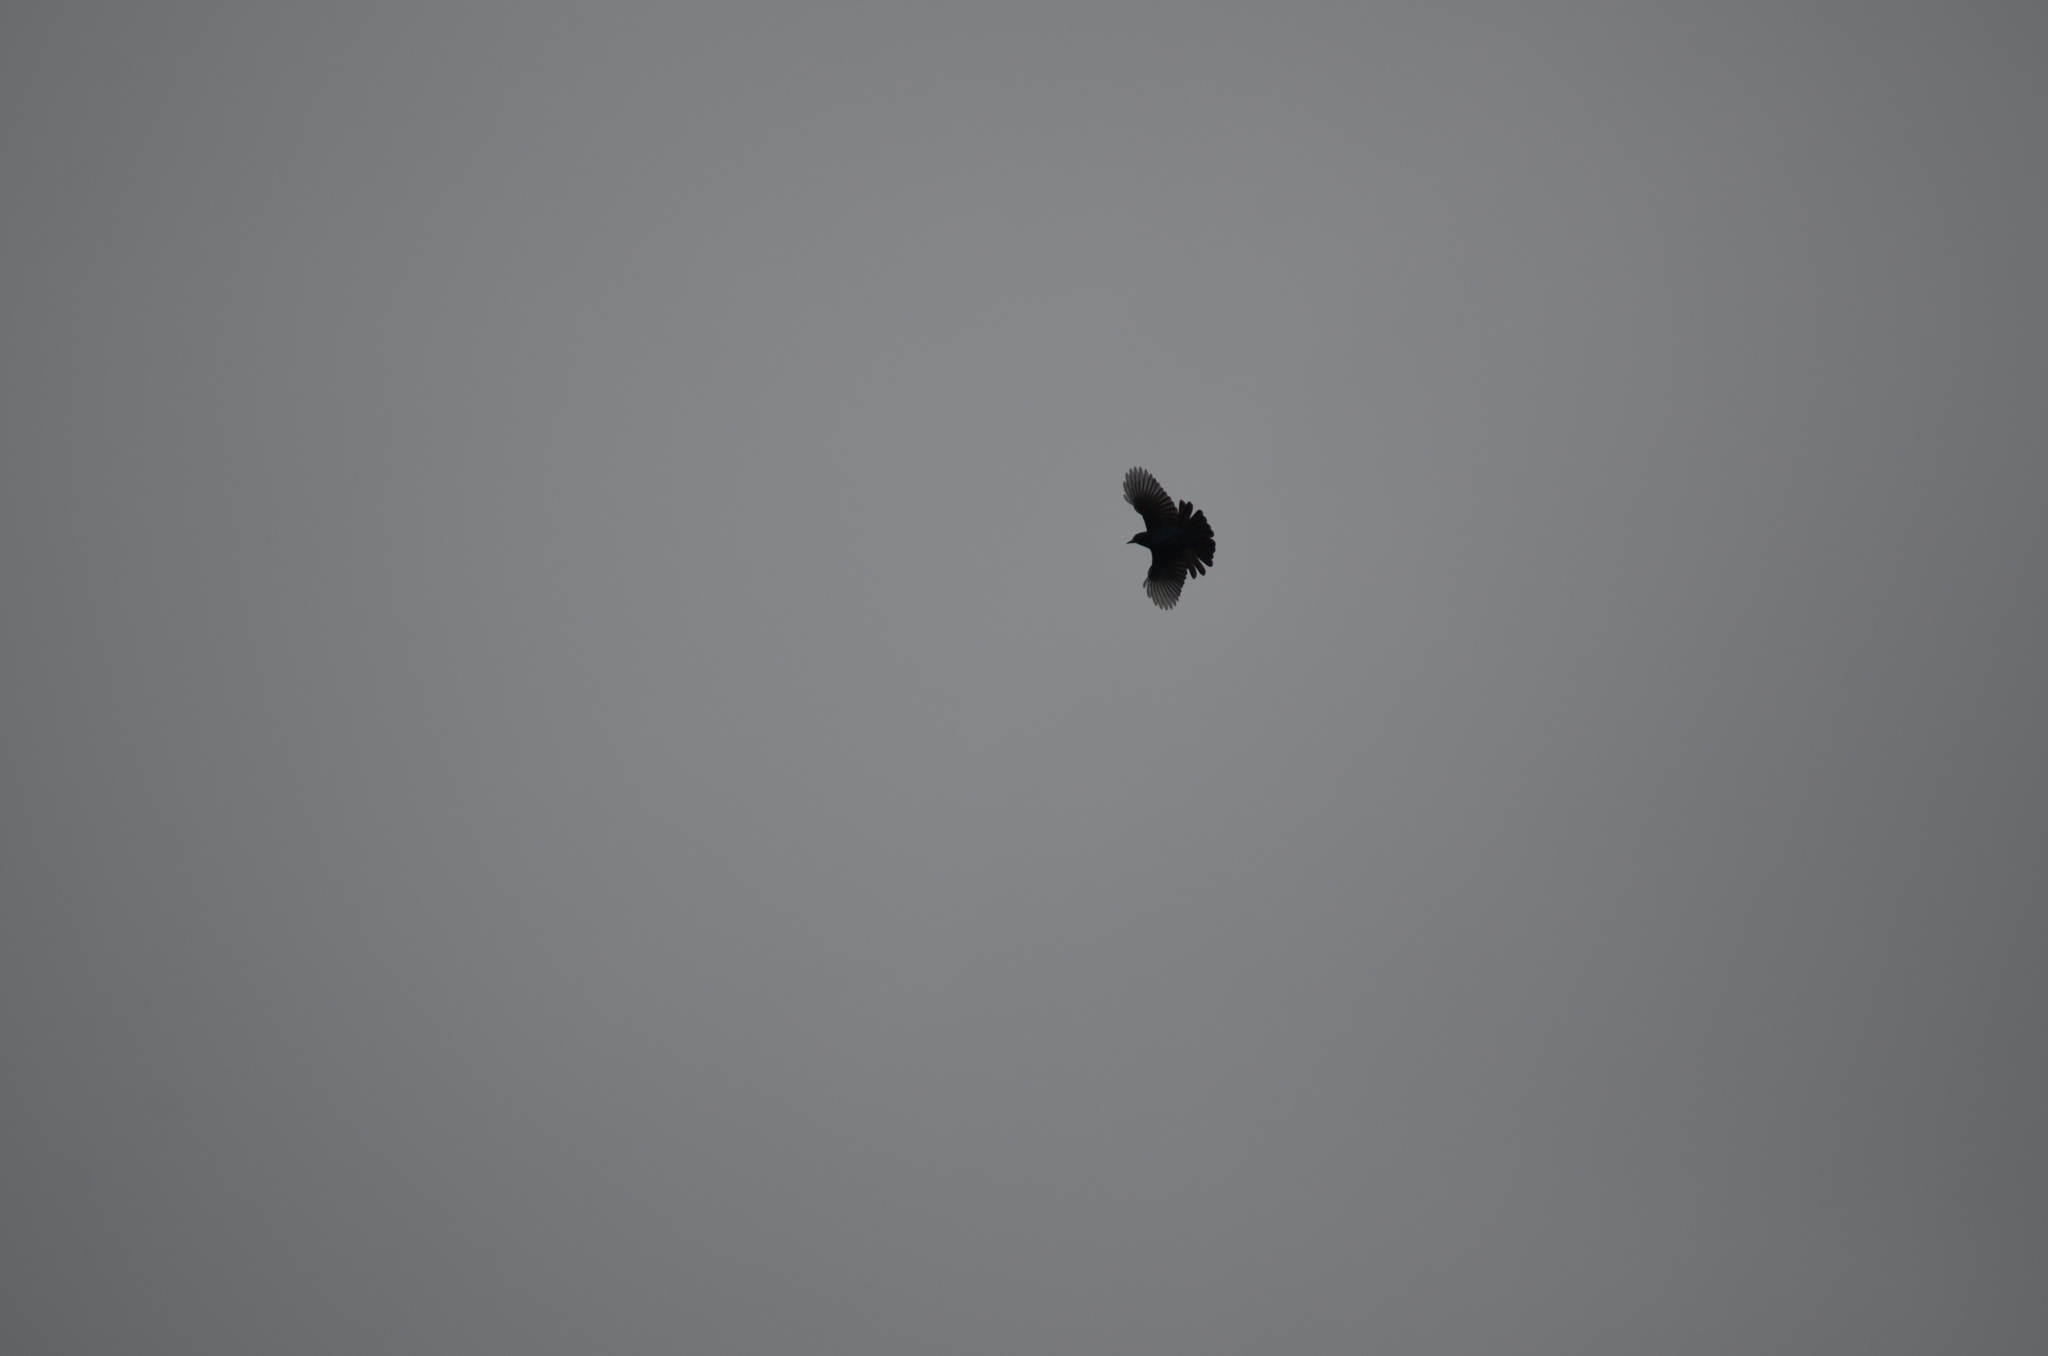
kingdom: Animalia
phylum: Chordata
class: Aves
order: Passeriformes
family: Corvidae
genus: Cyanocitta
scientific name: Cyanocitta stelleri
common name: Steller's jay
